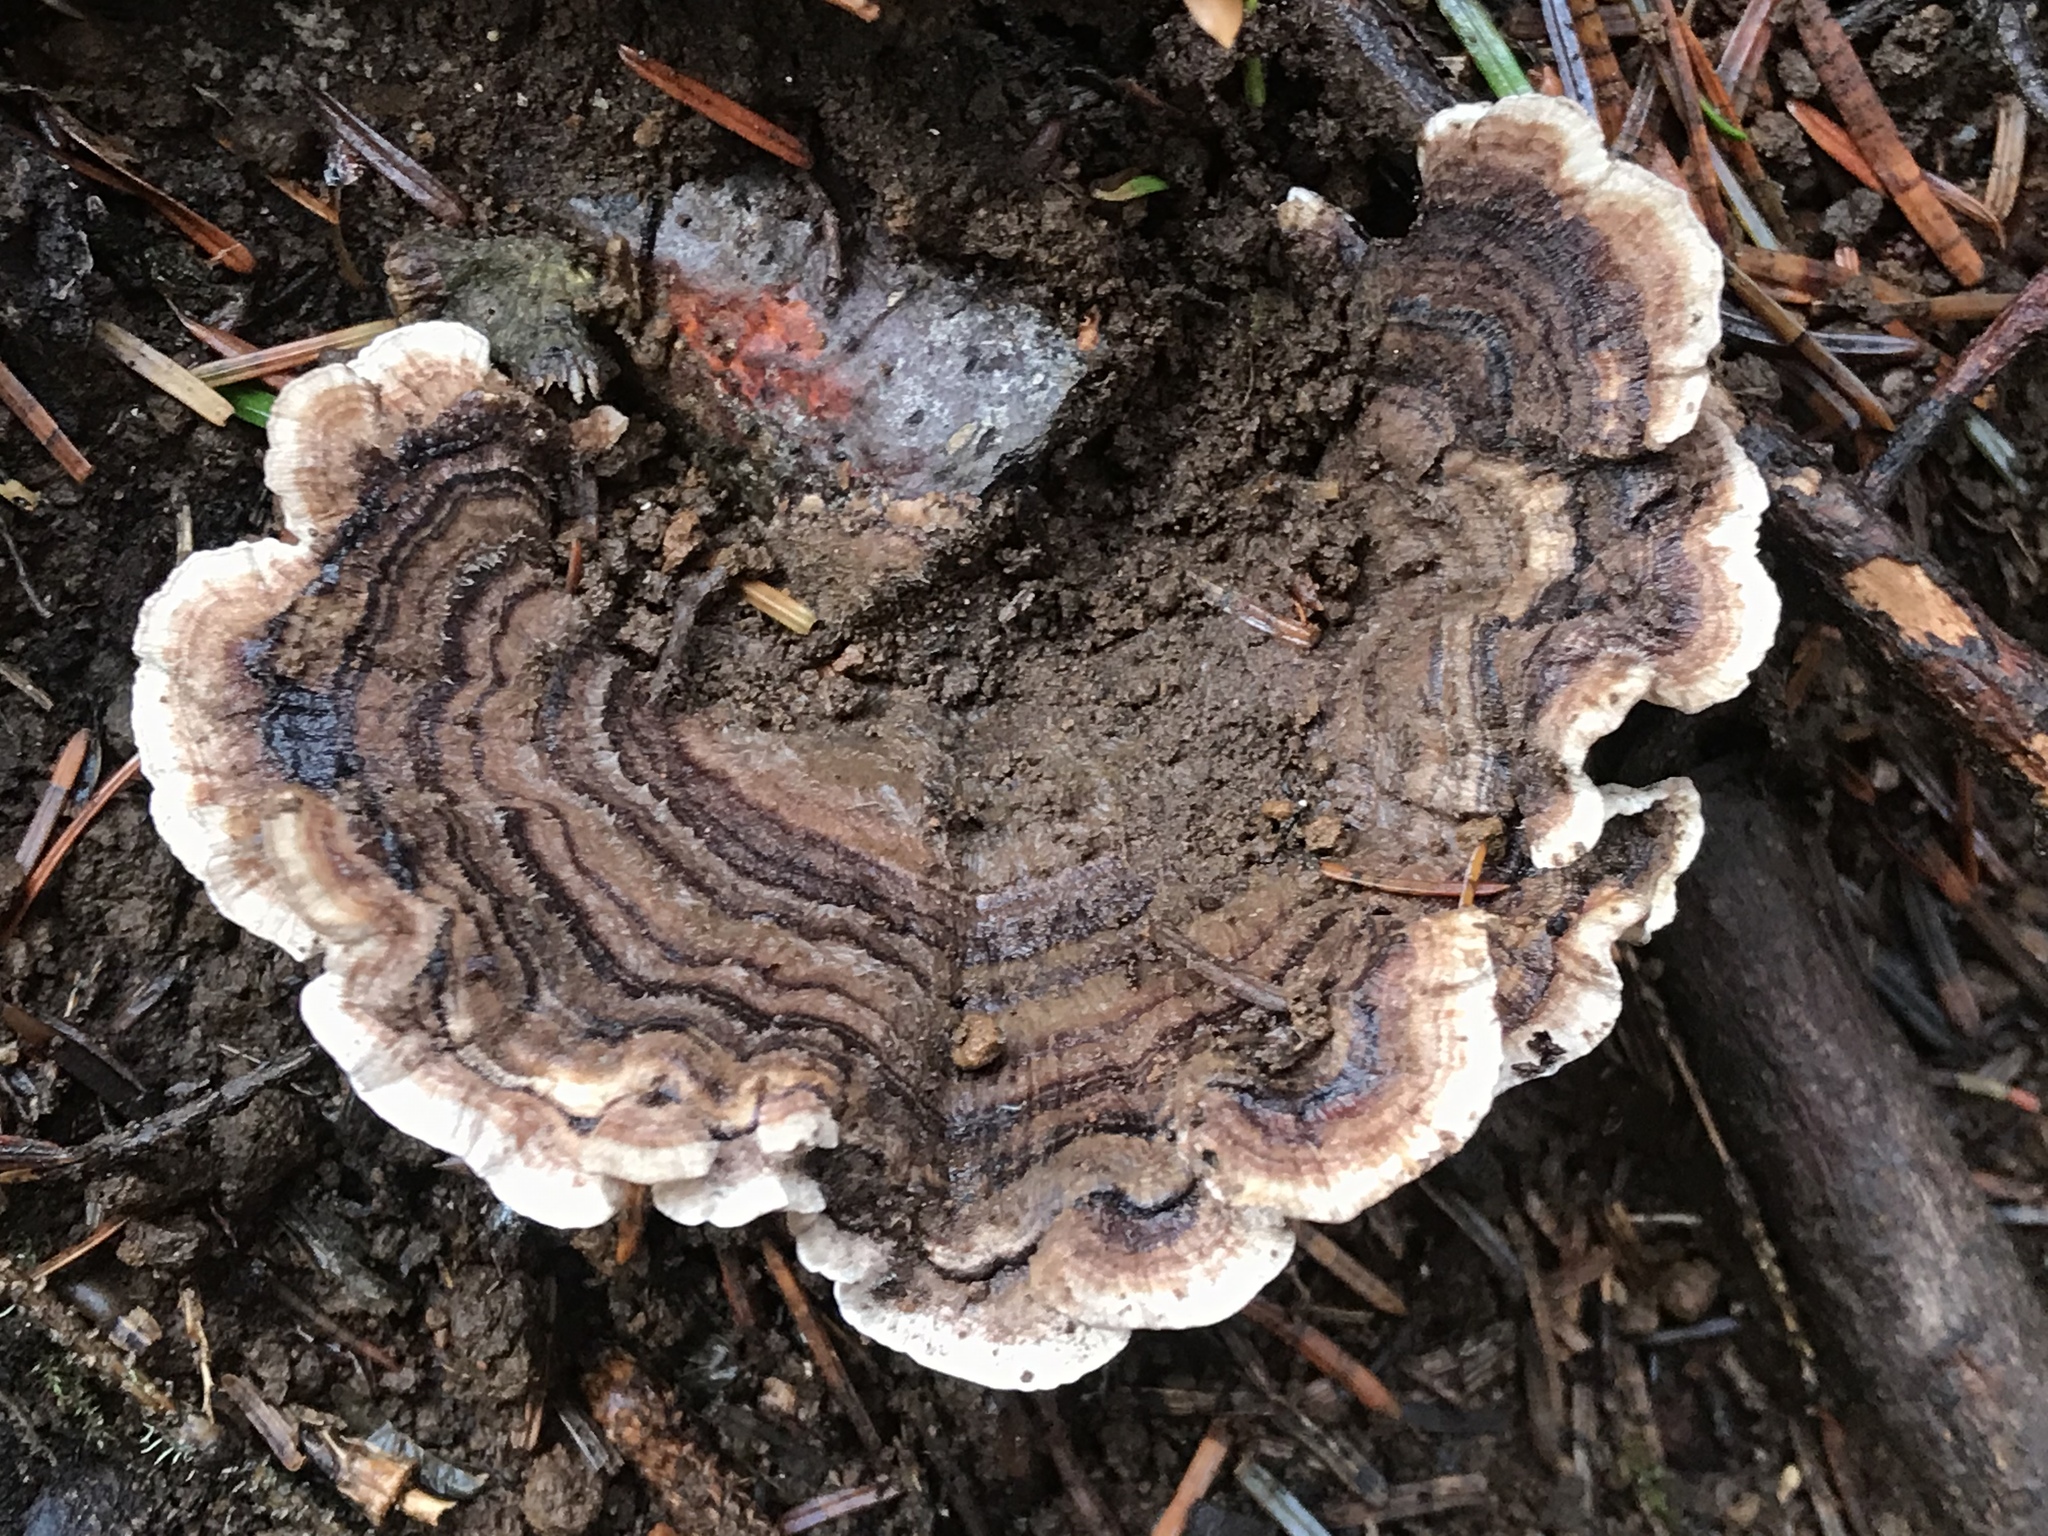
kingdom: Fungi
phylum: Basidiomycota
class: Agaricomycetes
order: Polyporales
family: Polyporaceae
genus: Trametes
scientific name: Trametes versicolor
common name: Turkeytail
